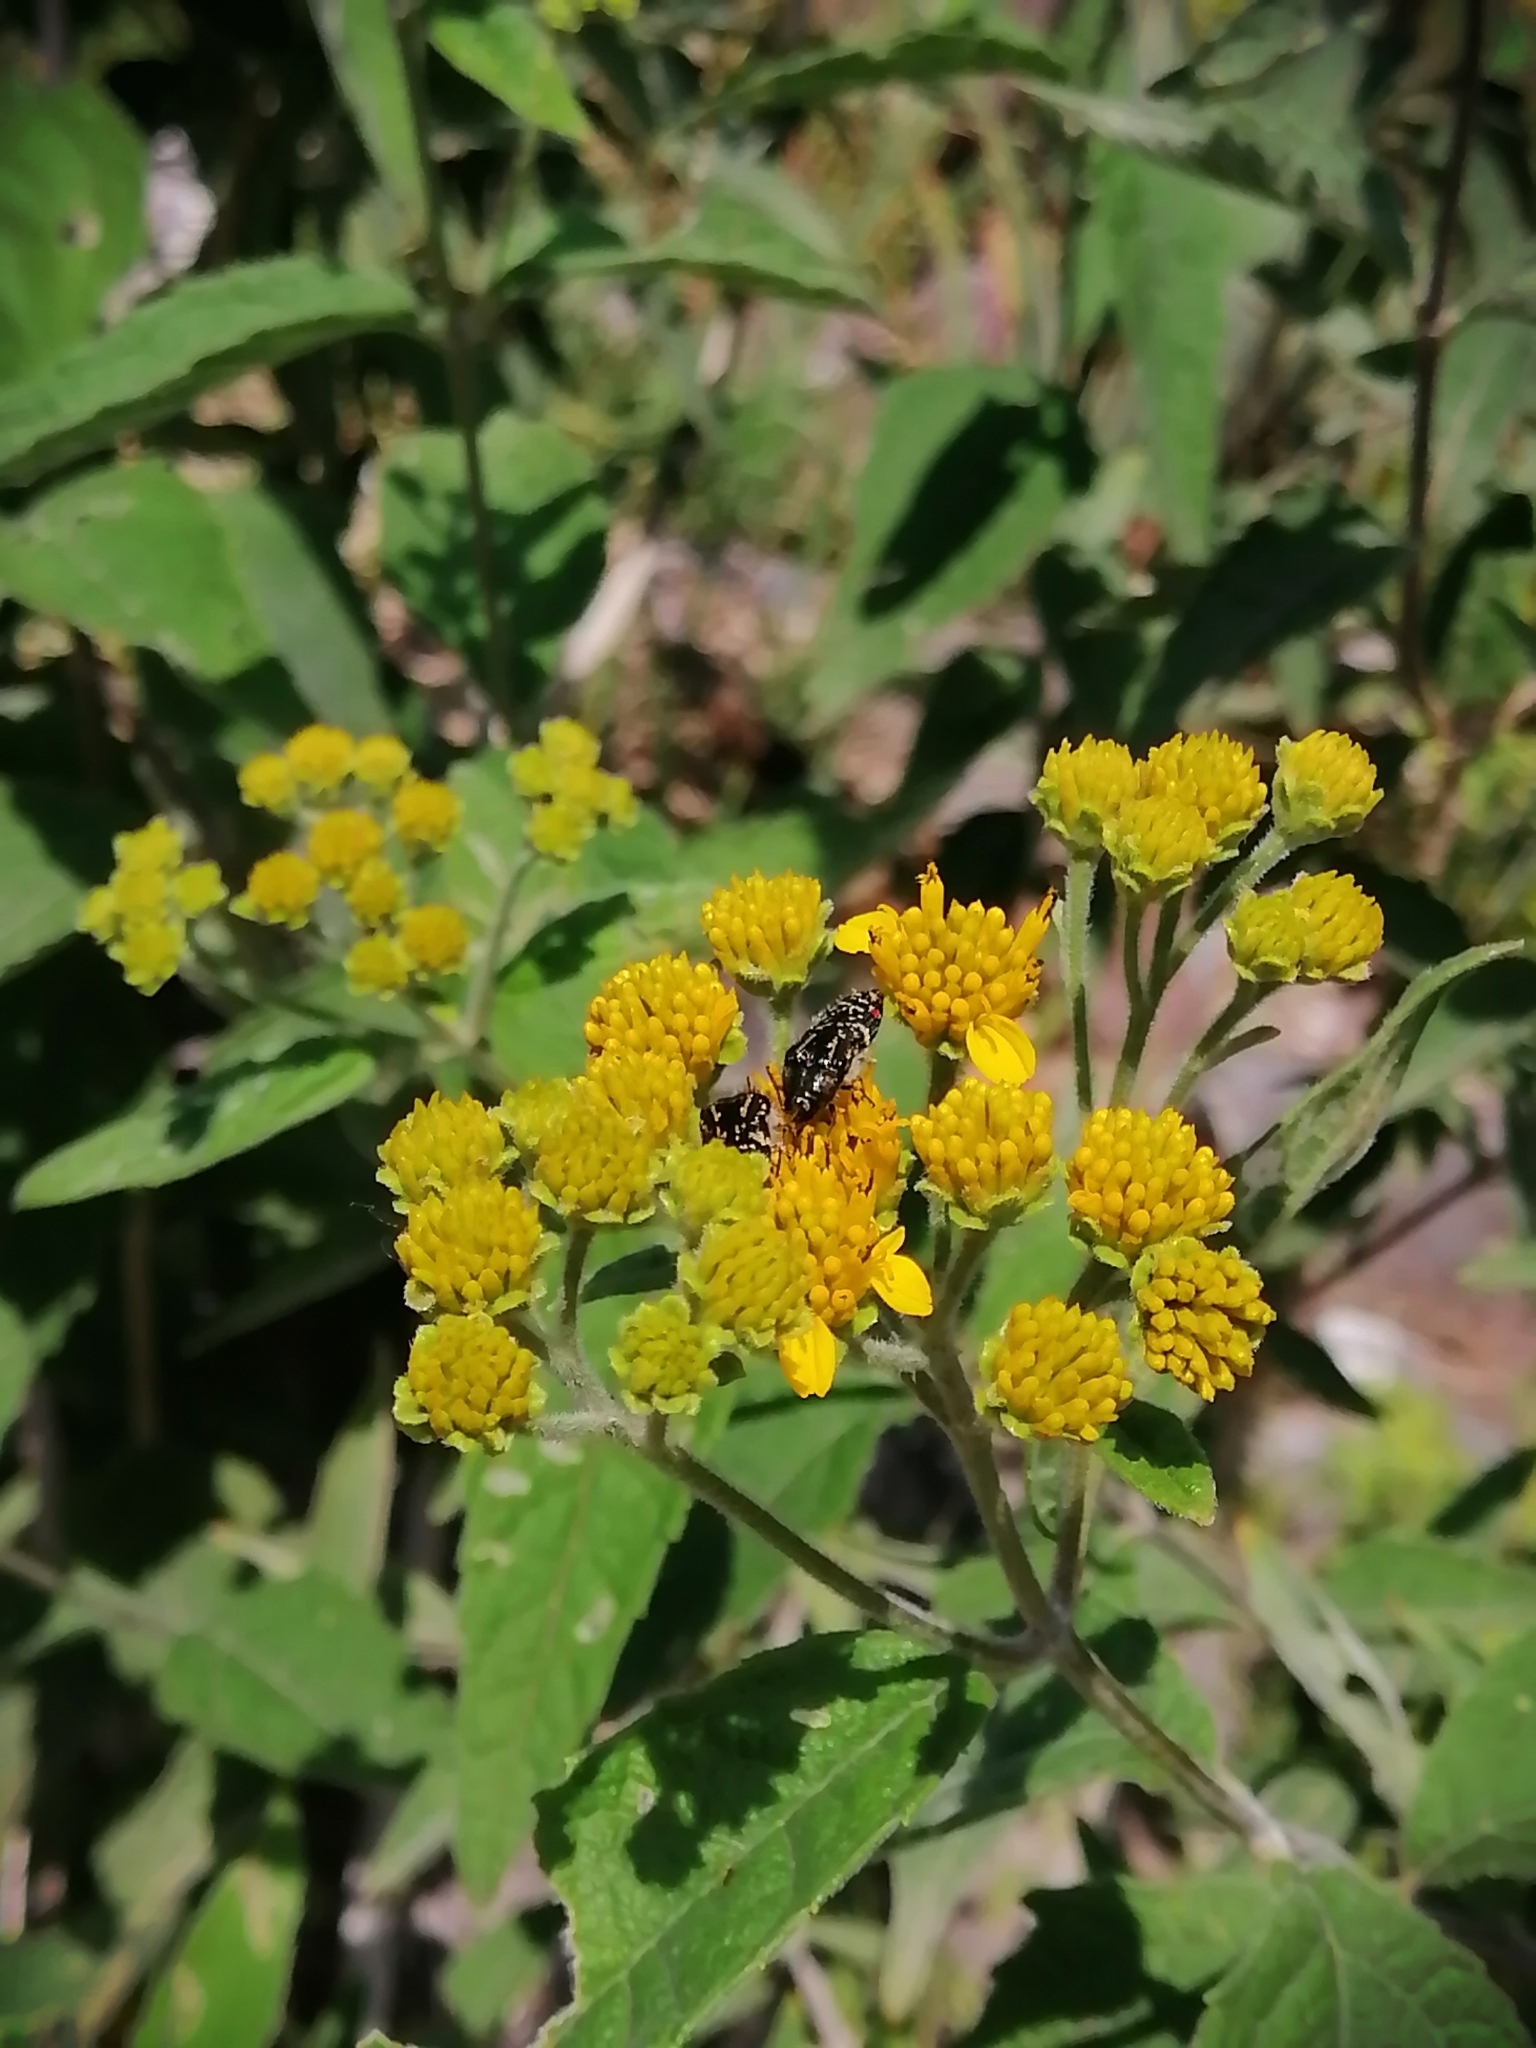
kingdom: Animalia
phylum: Arthropoda
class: Insecta
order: Coleoptera
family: Buprestidae
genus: Acmaeodera
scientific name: Acmaeodera mudgei
